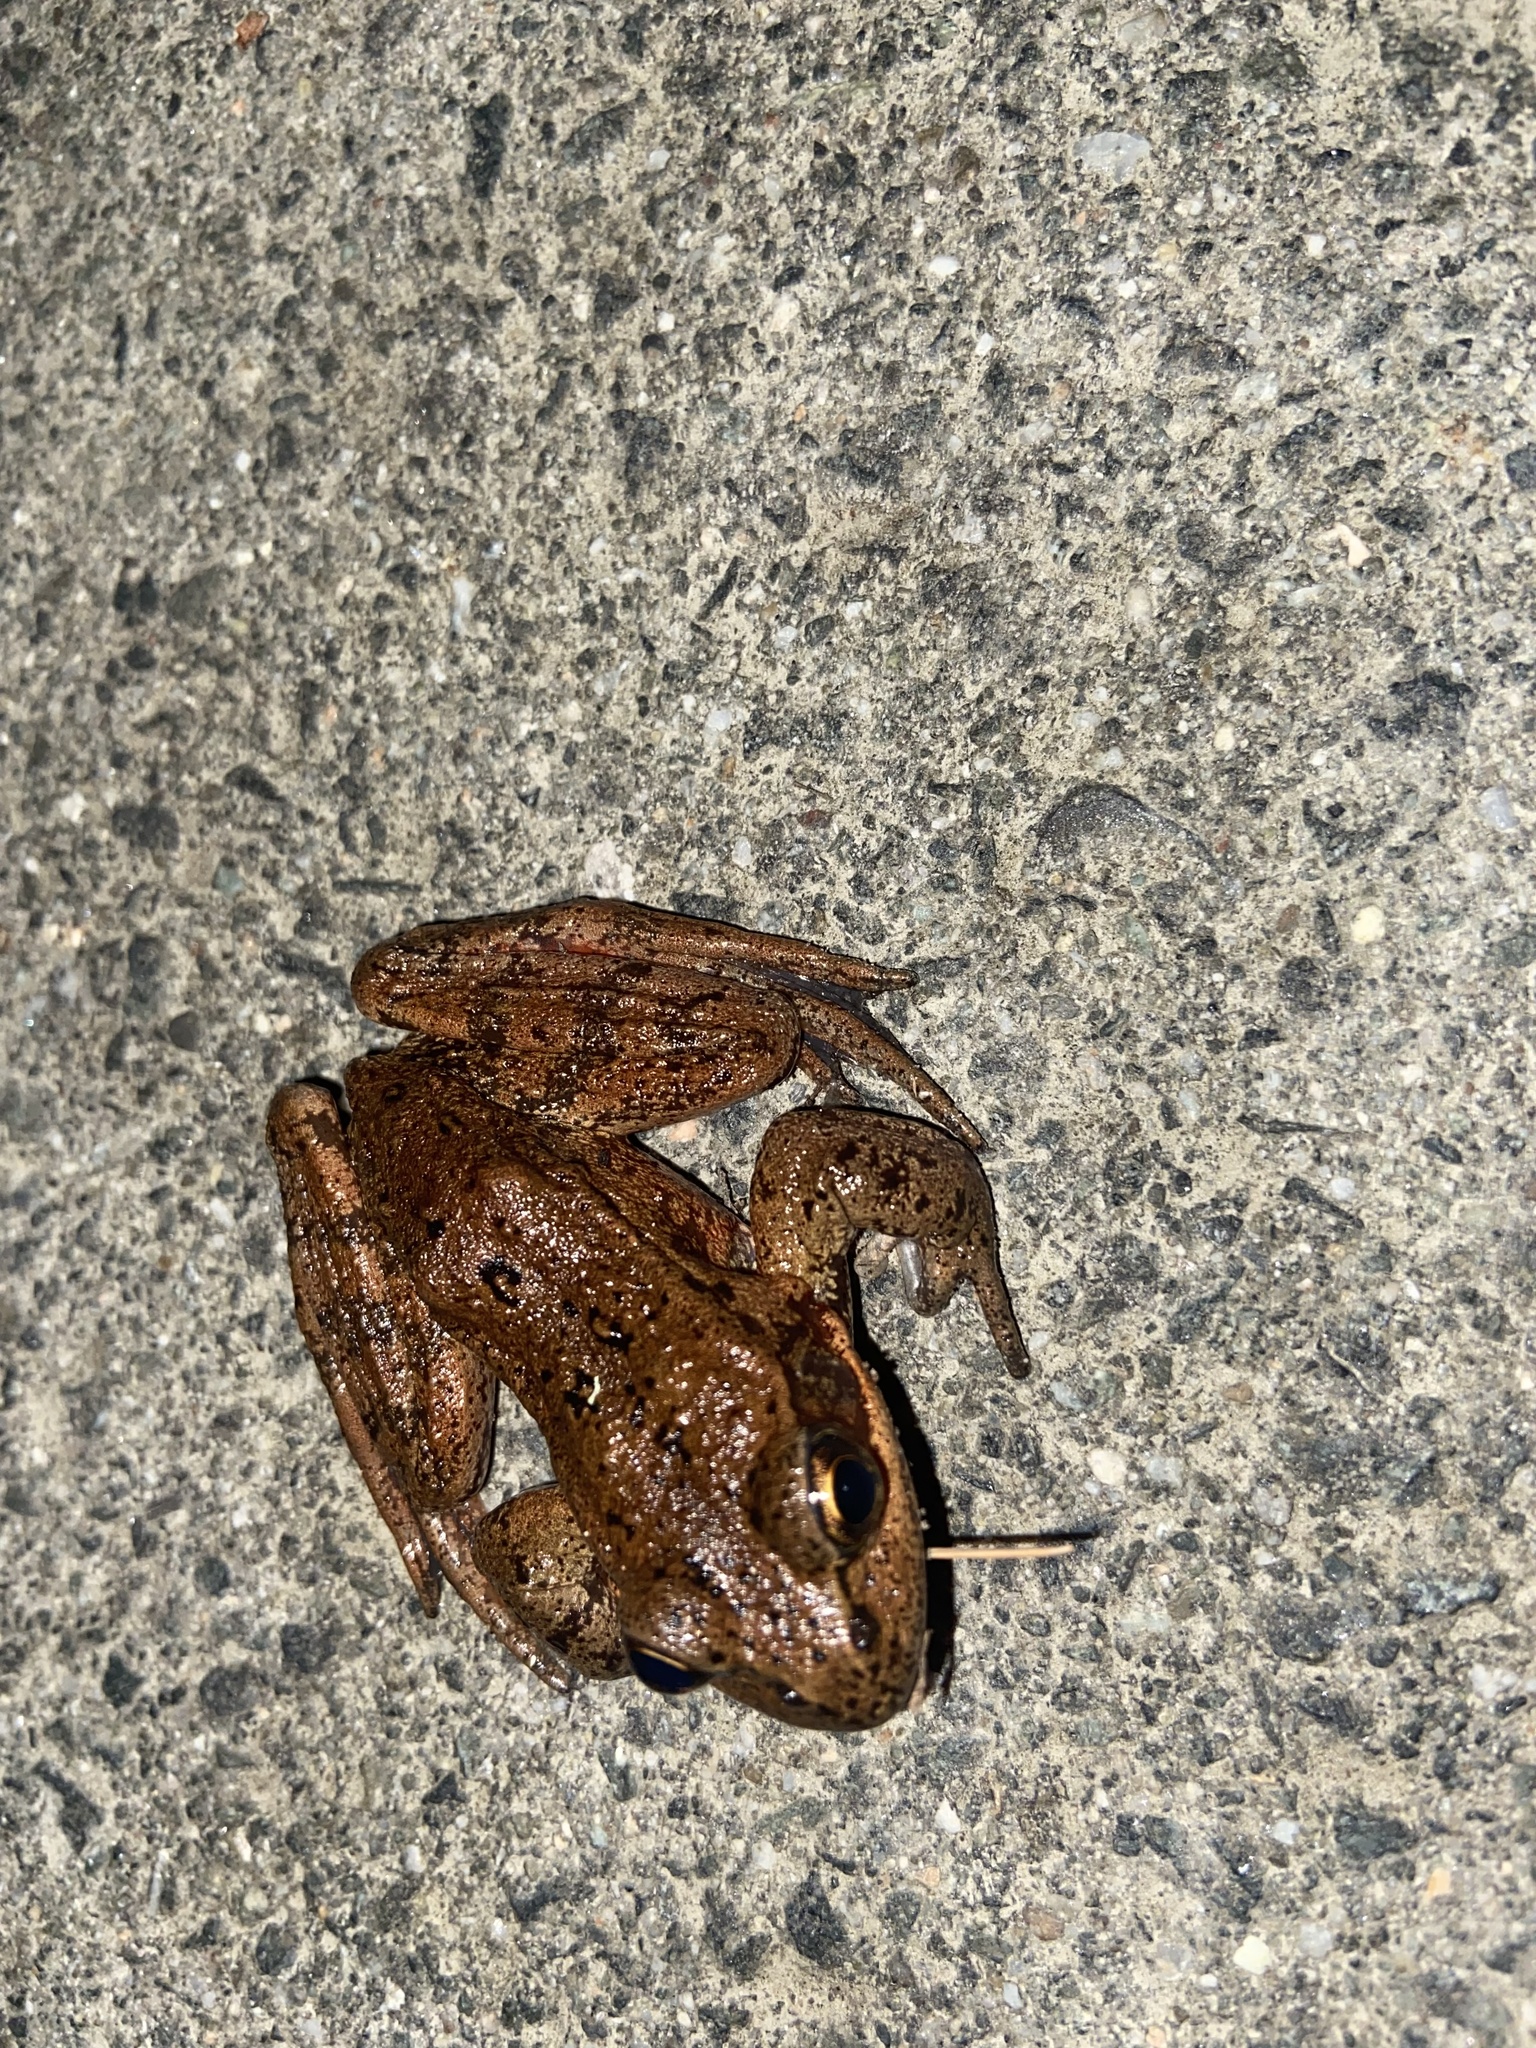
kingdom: Animalia
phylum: Chordata
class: Amphibia
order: Anura
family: Ranidae
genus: Rana
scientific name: Rana aurora
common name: Red-legged frog
